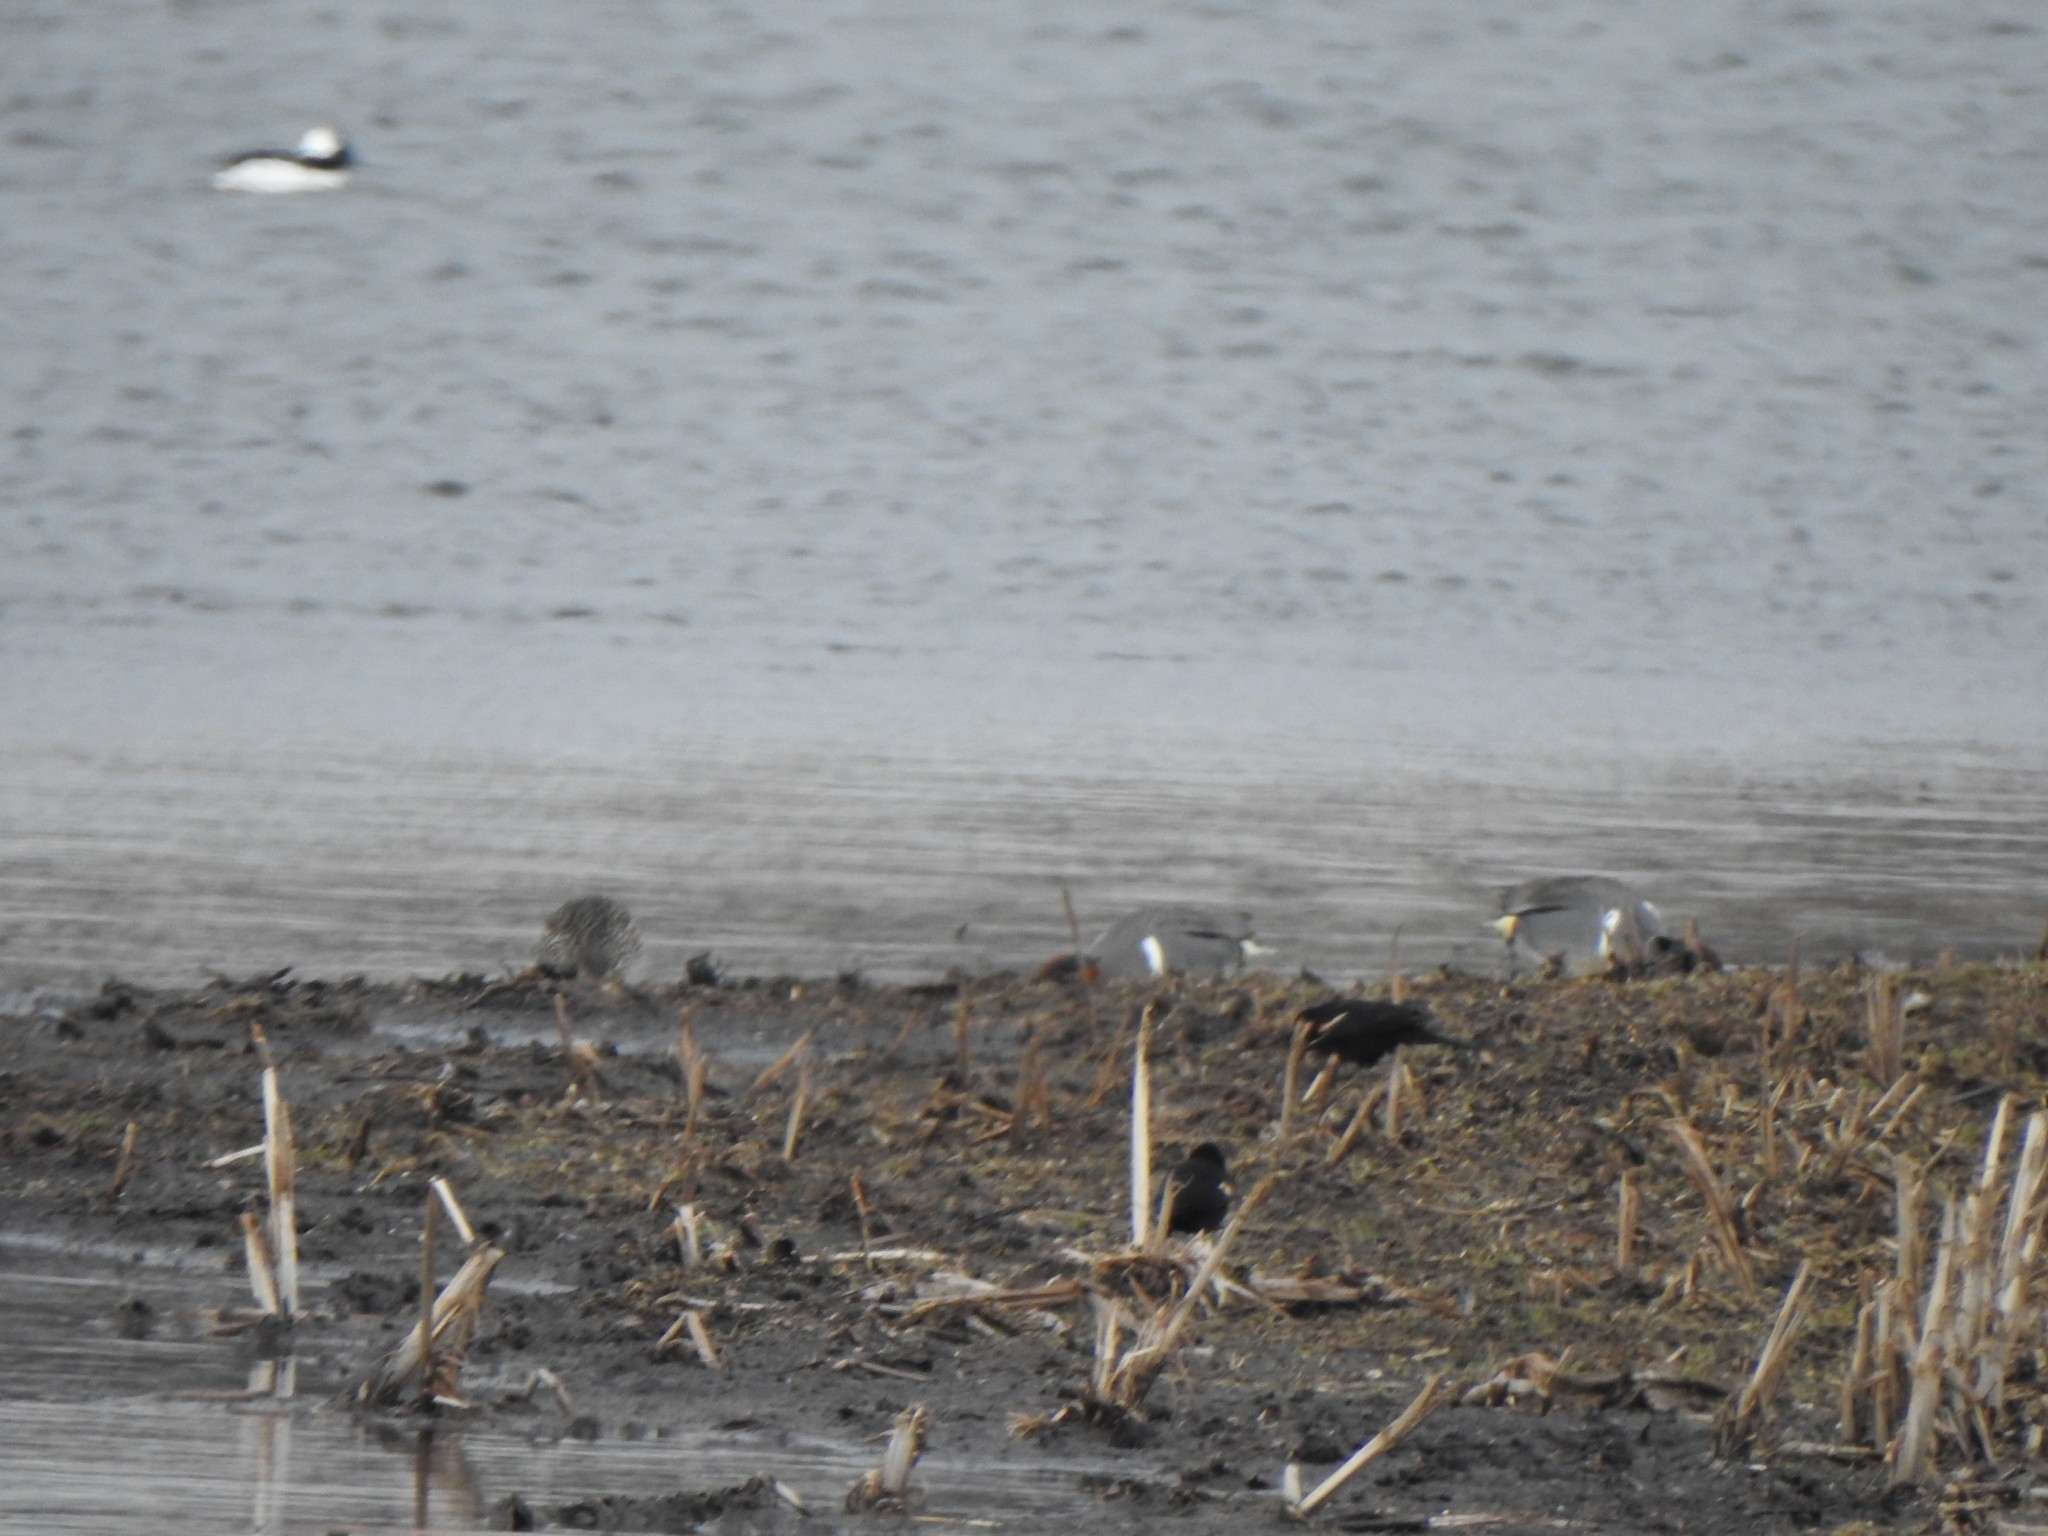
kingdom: Animalia
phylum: Chordata
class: Aves
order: Anseriformes
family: Anatidae
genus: Anas
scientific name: Anas crecca
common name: Eurasian teal
